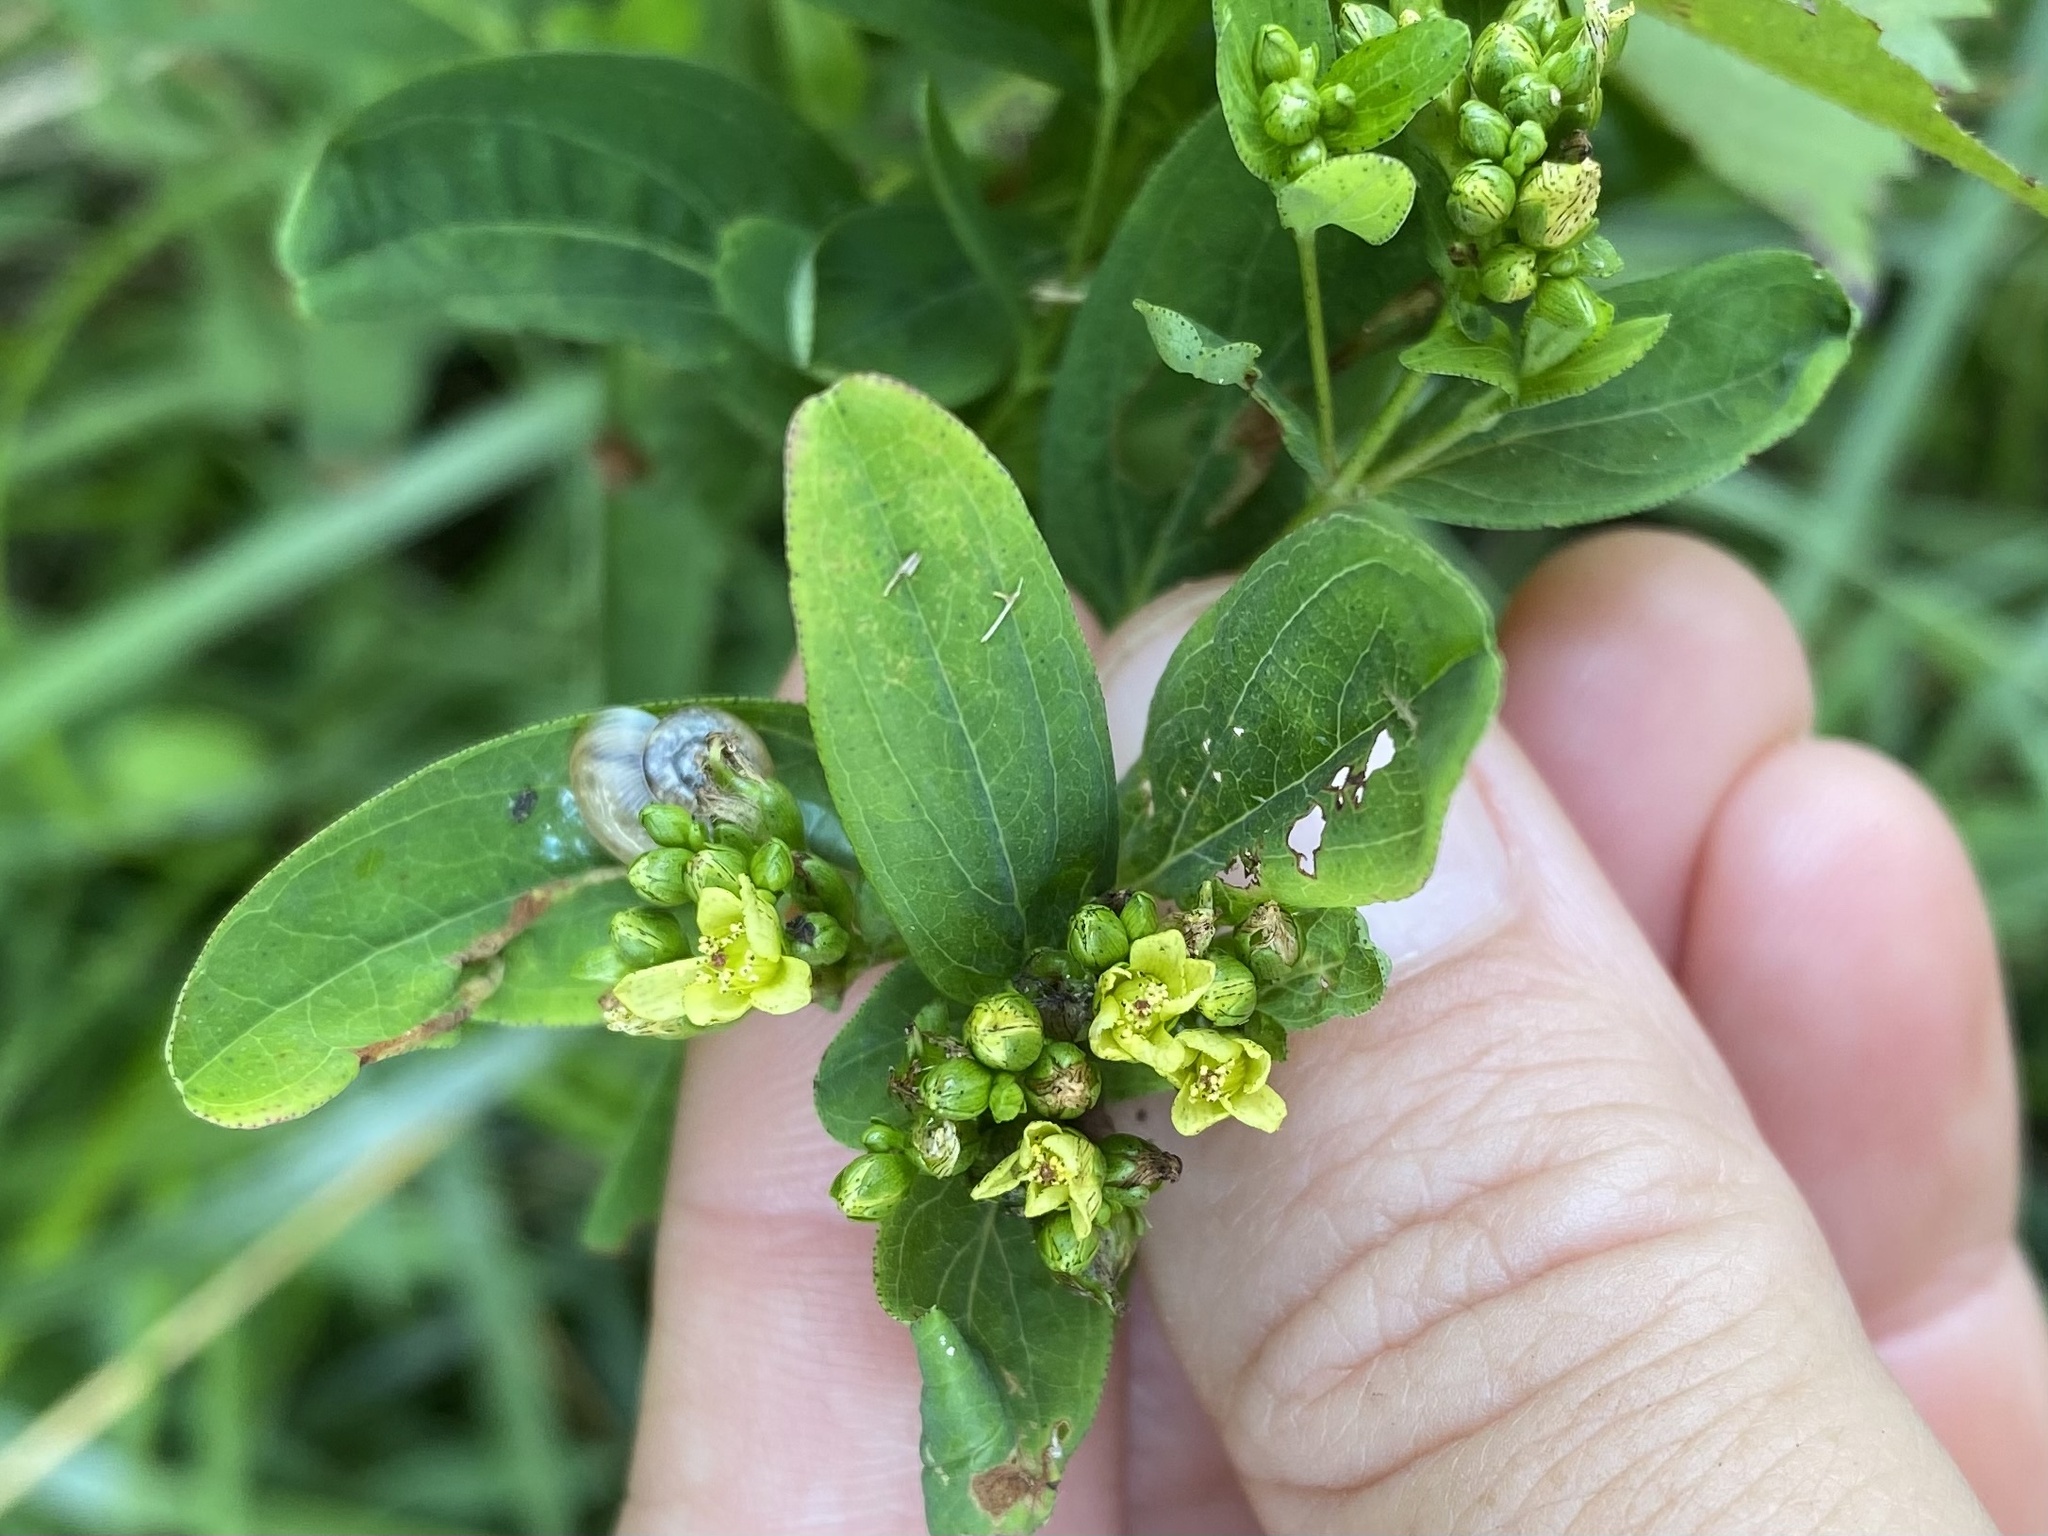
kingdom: Plantae
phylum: Tracheophyta
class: Magnoliopsida
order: Malpighiales
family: Hypericaceae
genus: Hypericum
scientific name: Hypericum punctatum
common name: Spotted st. john's-wort
